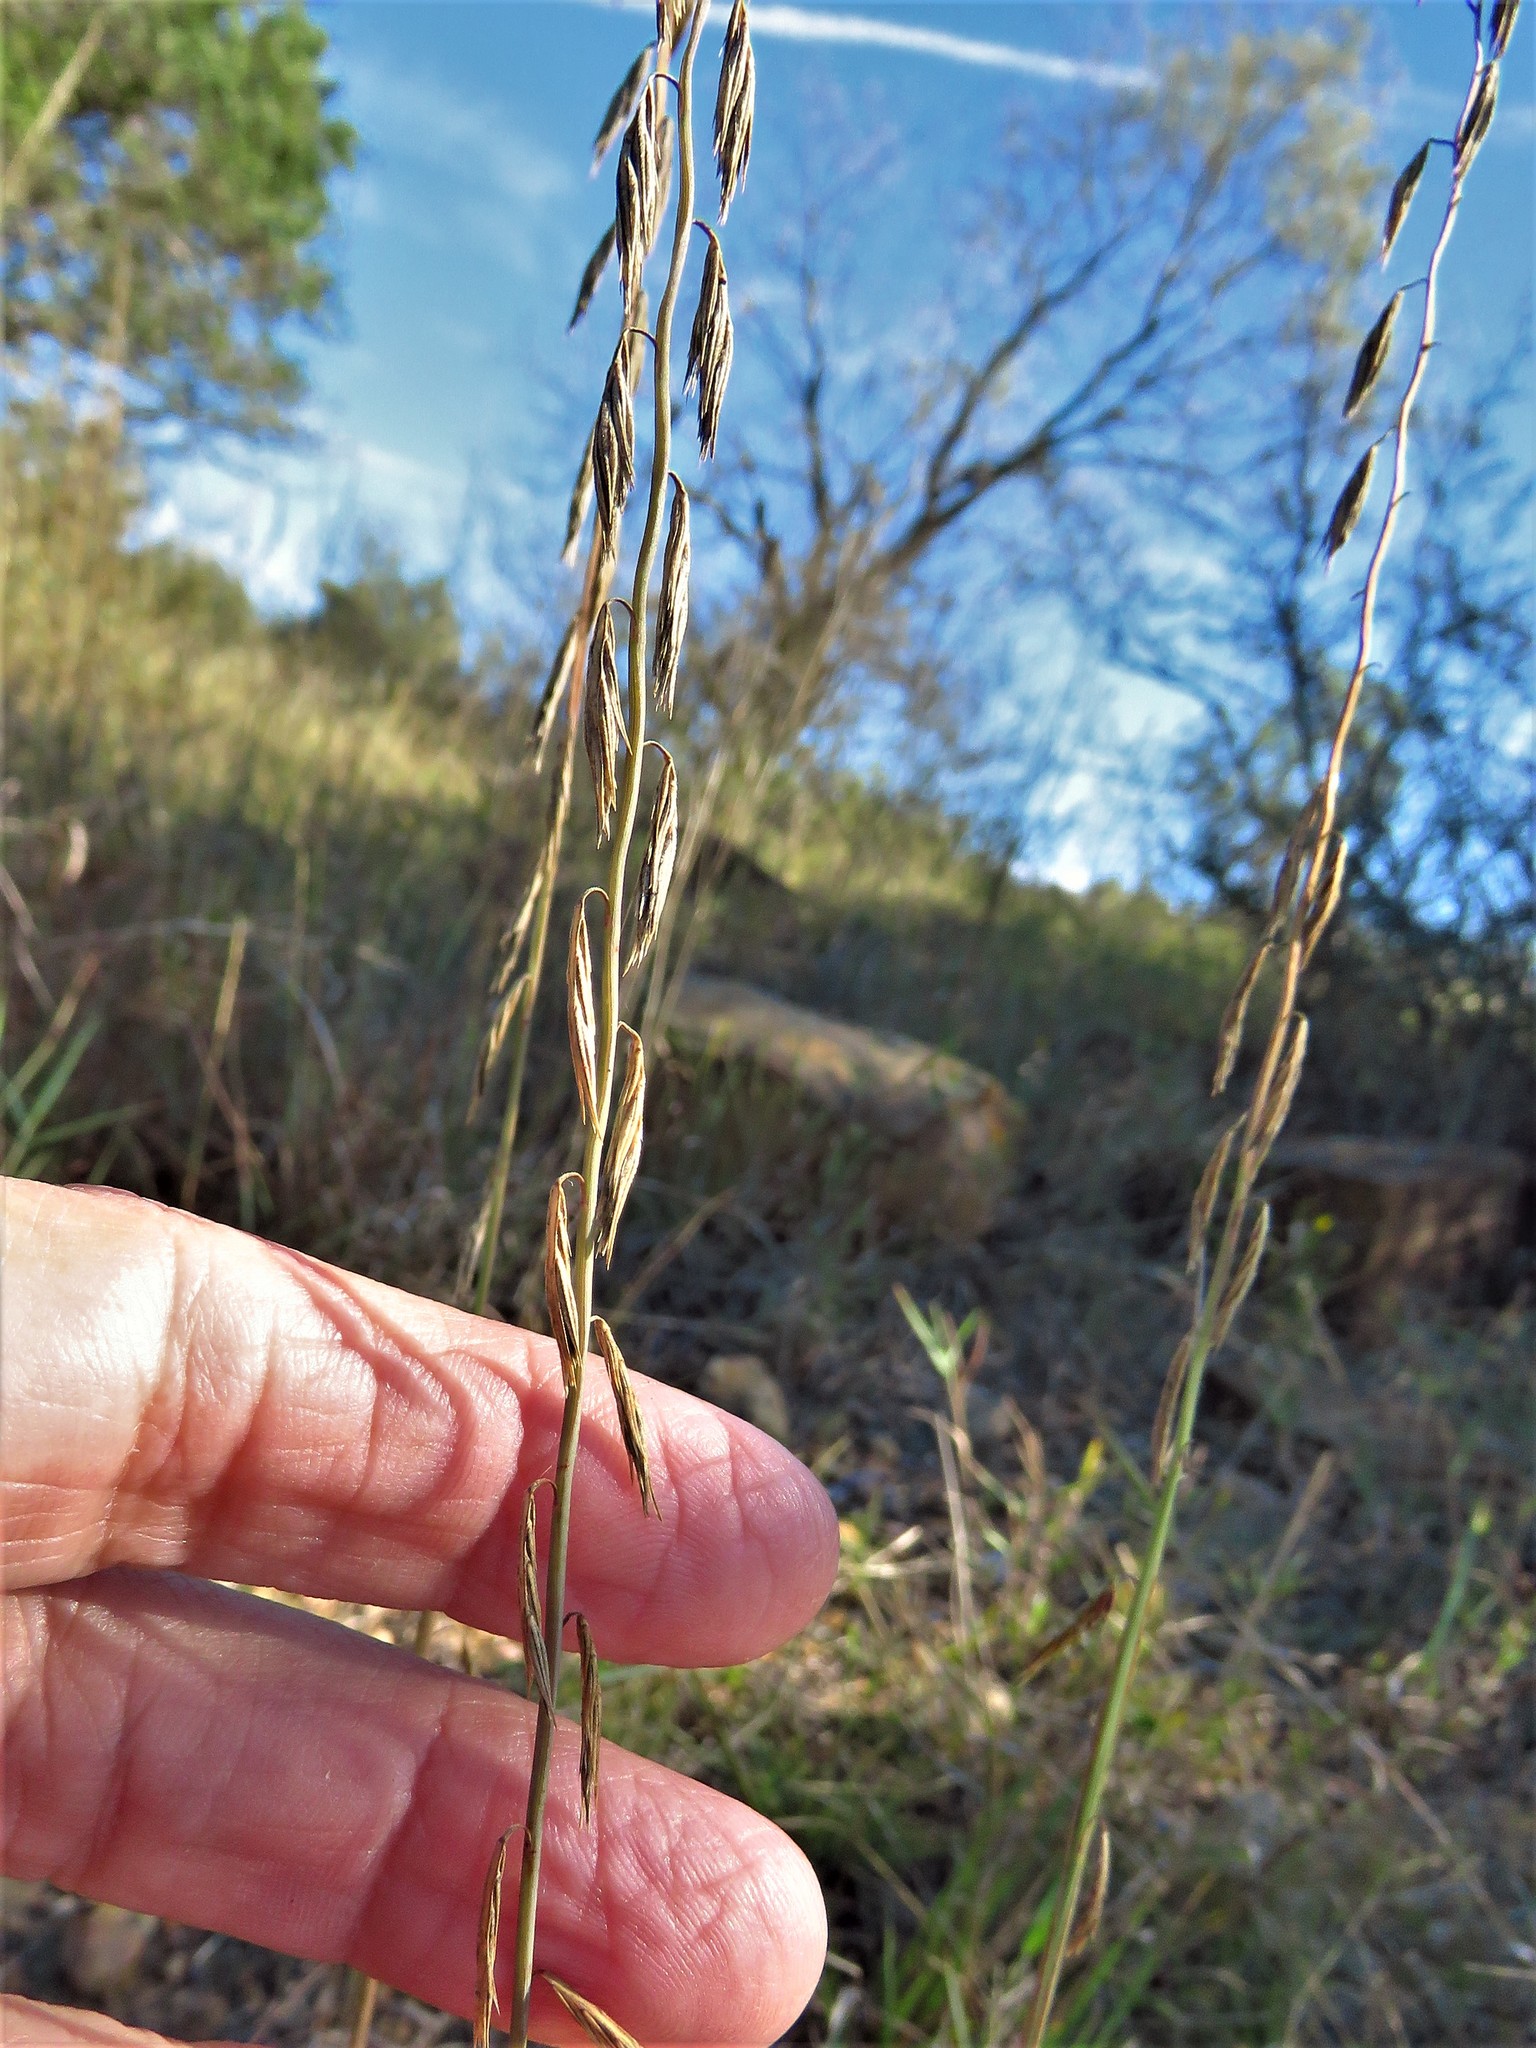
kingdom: Plantae
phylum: Tracheophyta
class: Liliopsida
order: Poales
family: Poaceae
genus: Bouteloua
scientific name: Bouteloua curtipendula
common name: Side-oats grama
